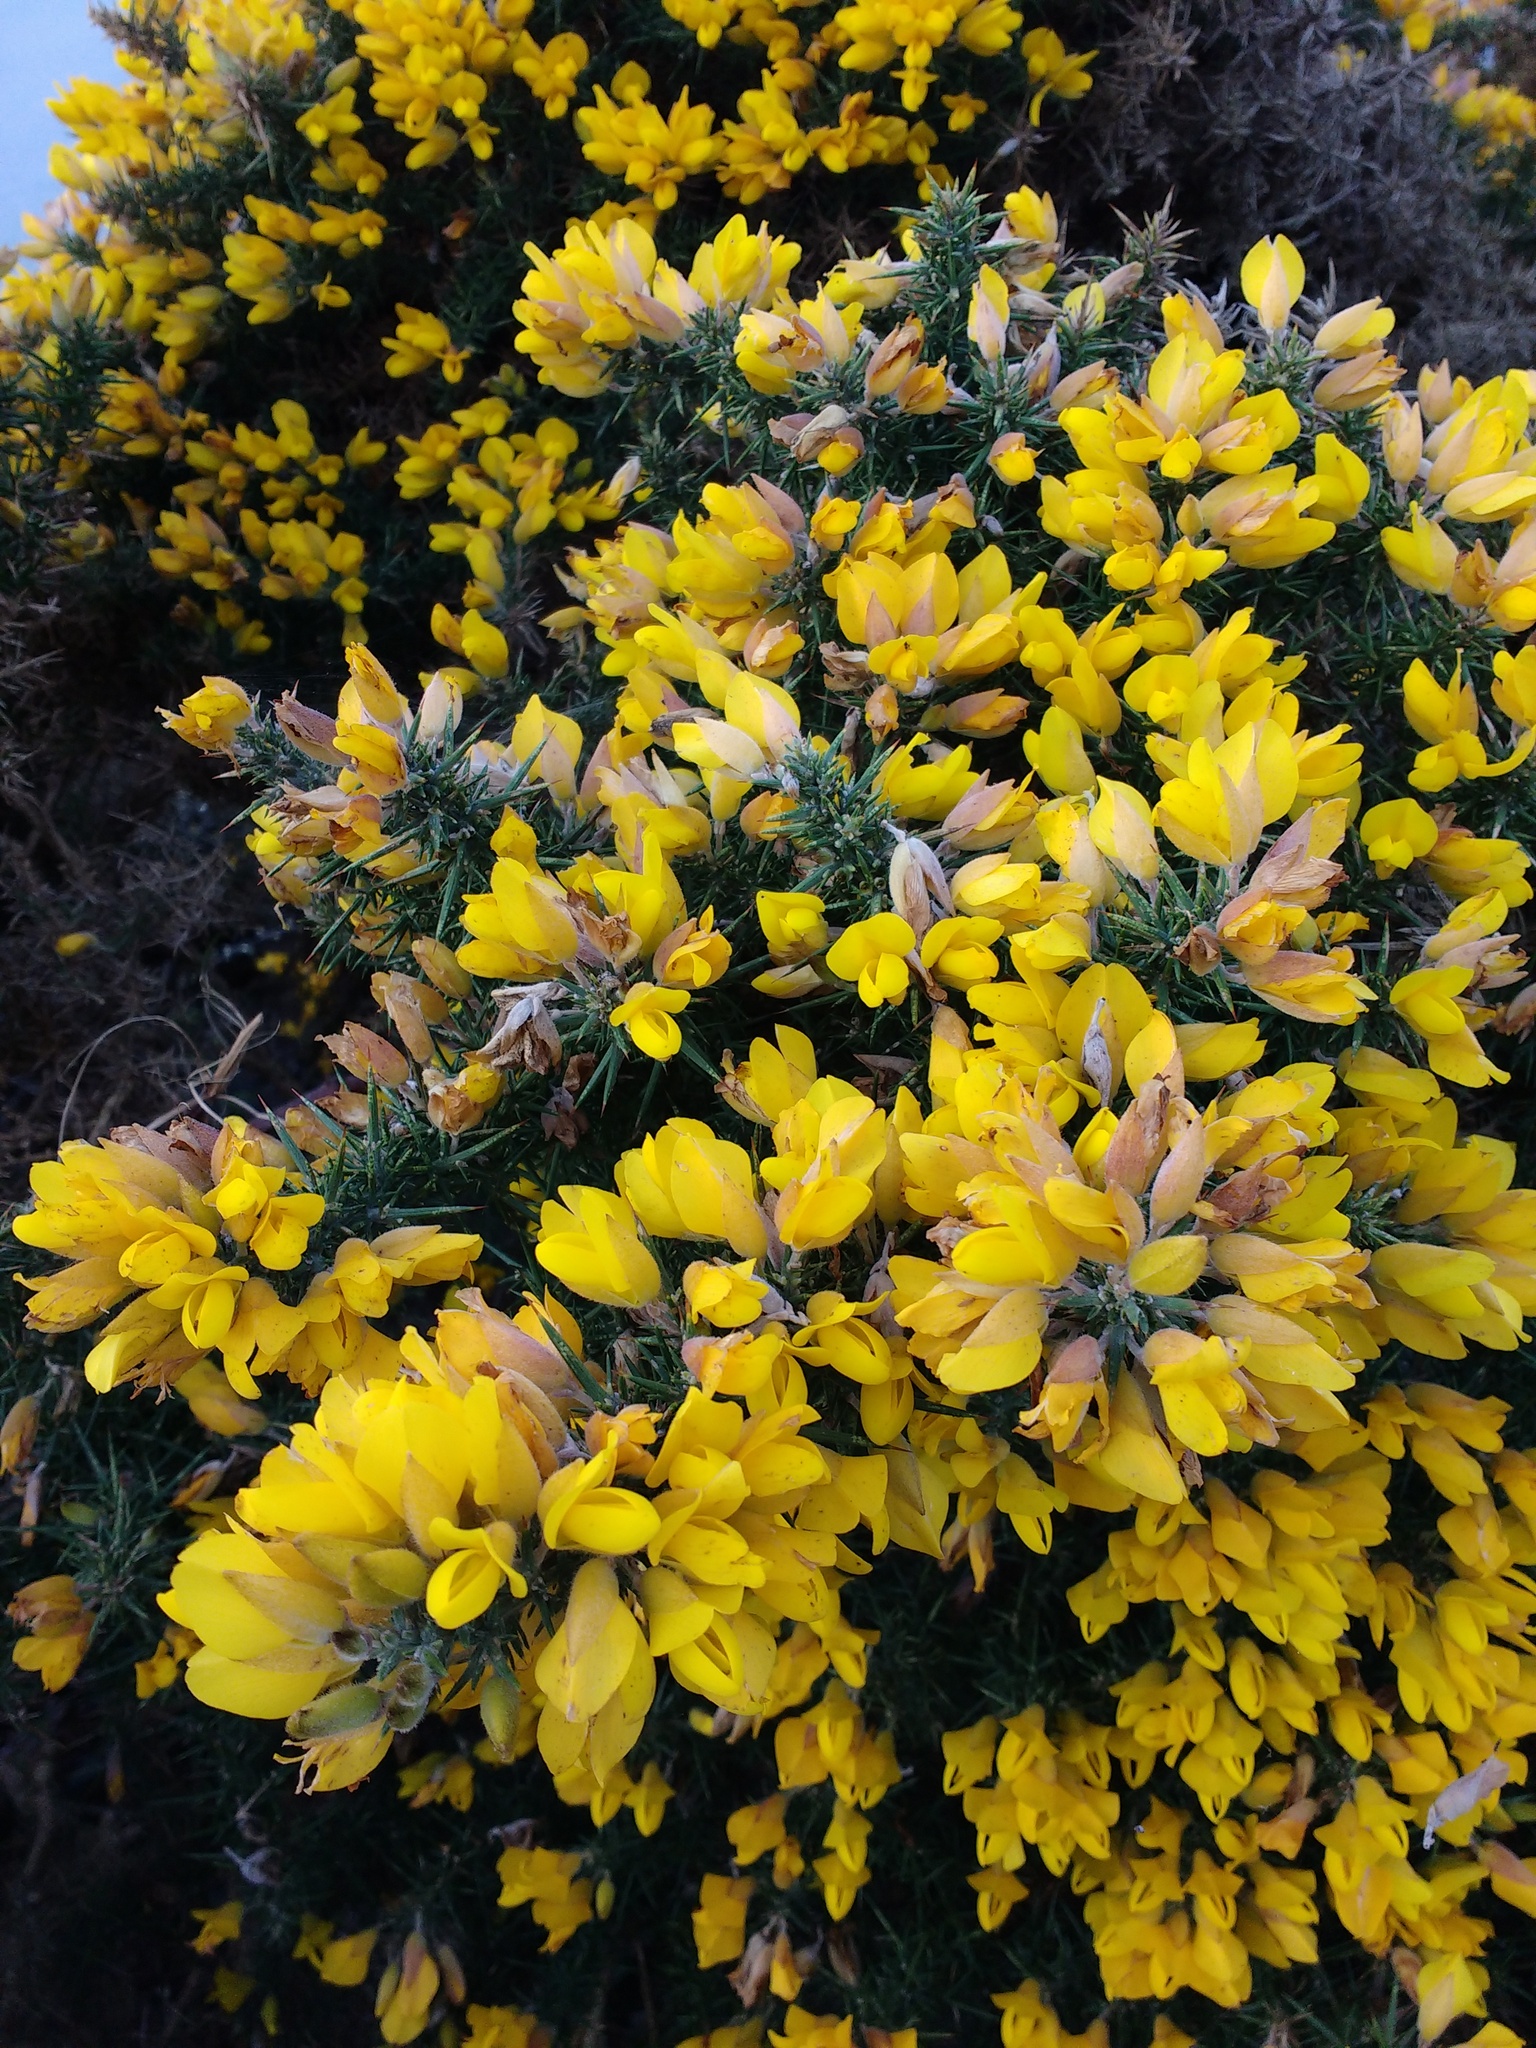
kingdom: Plantae
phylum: Tracheophyta
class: Magnoliopsida
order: Fabales
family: Fabaceae
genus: Ulex
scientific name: Ulex europaeus
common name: Common gorse
